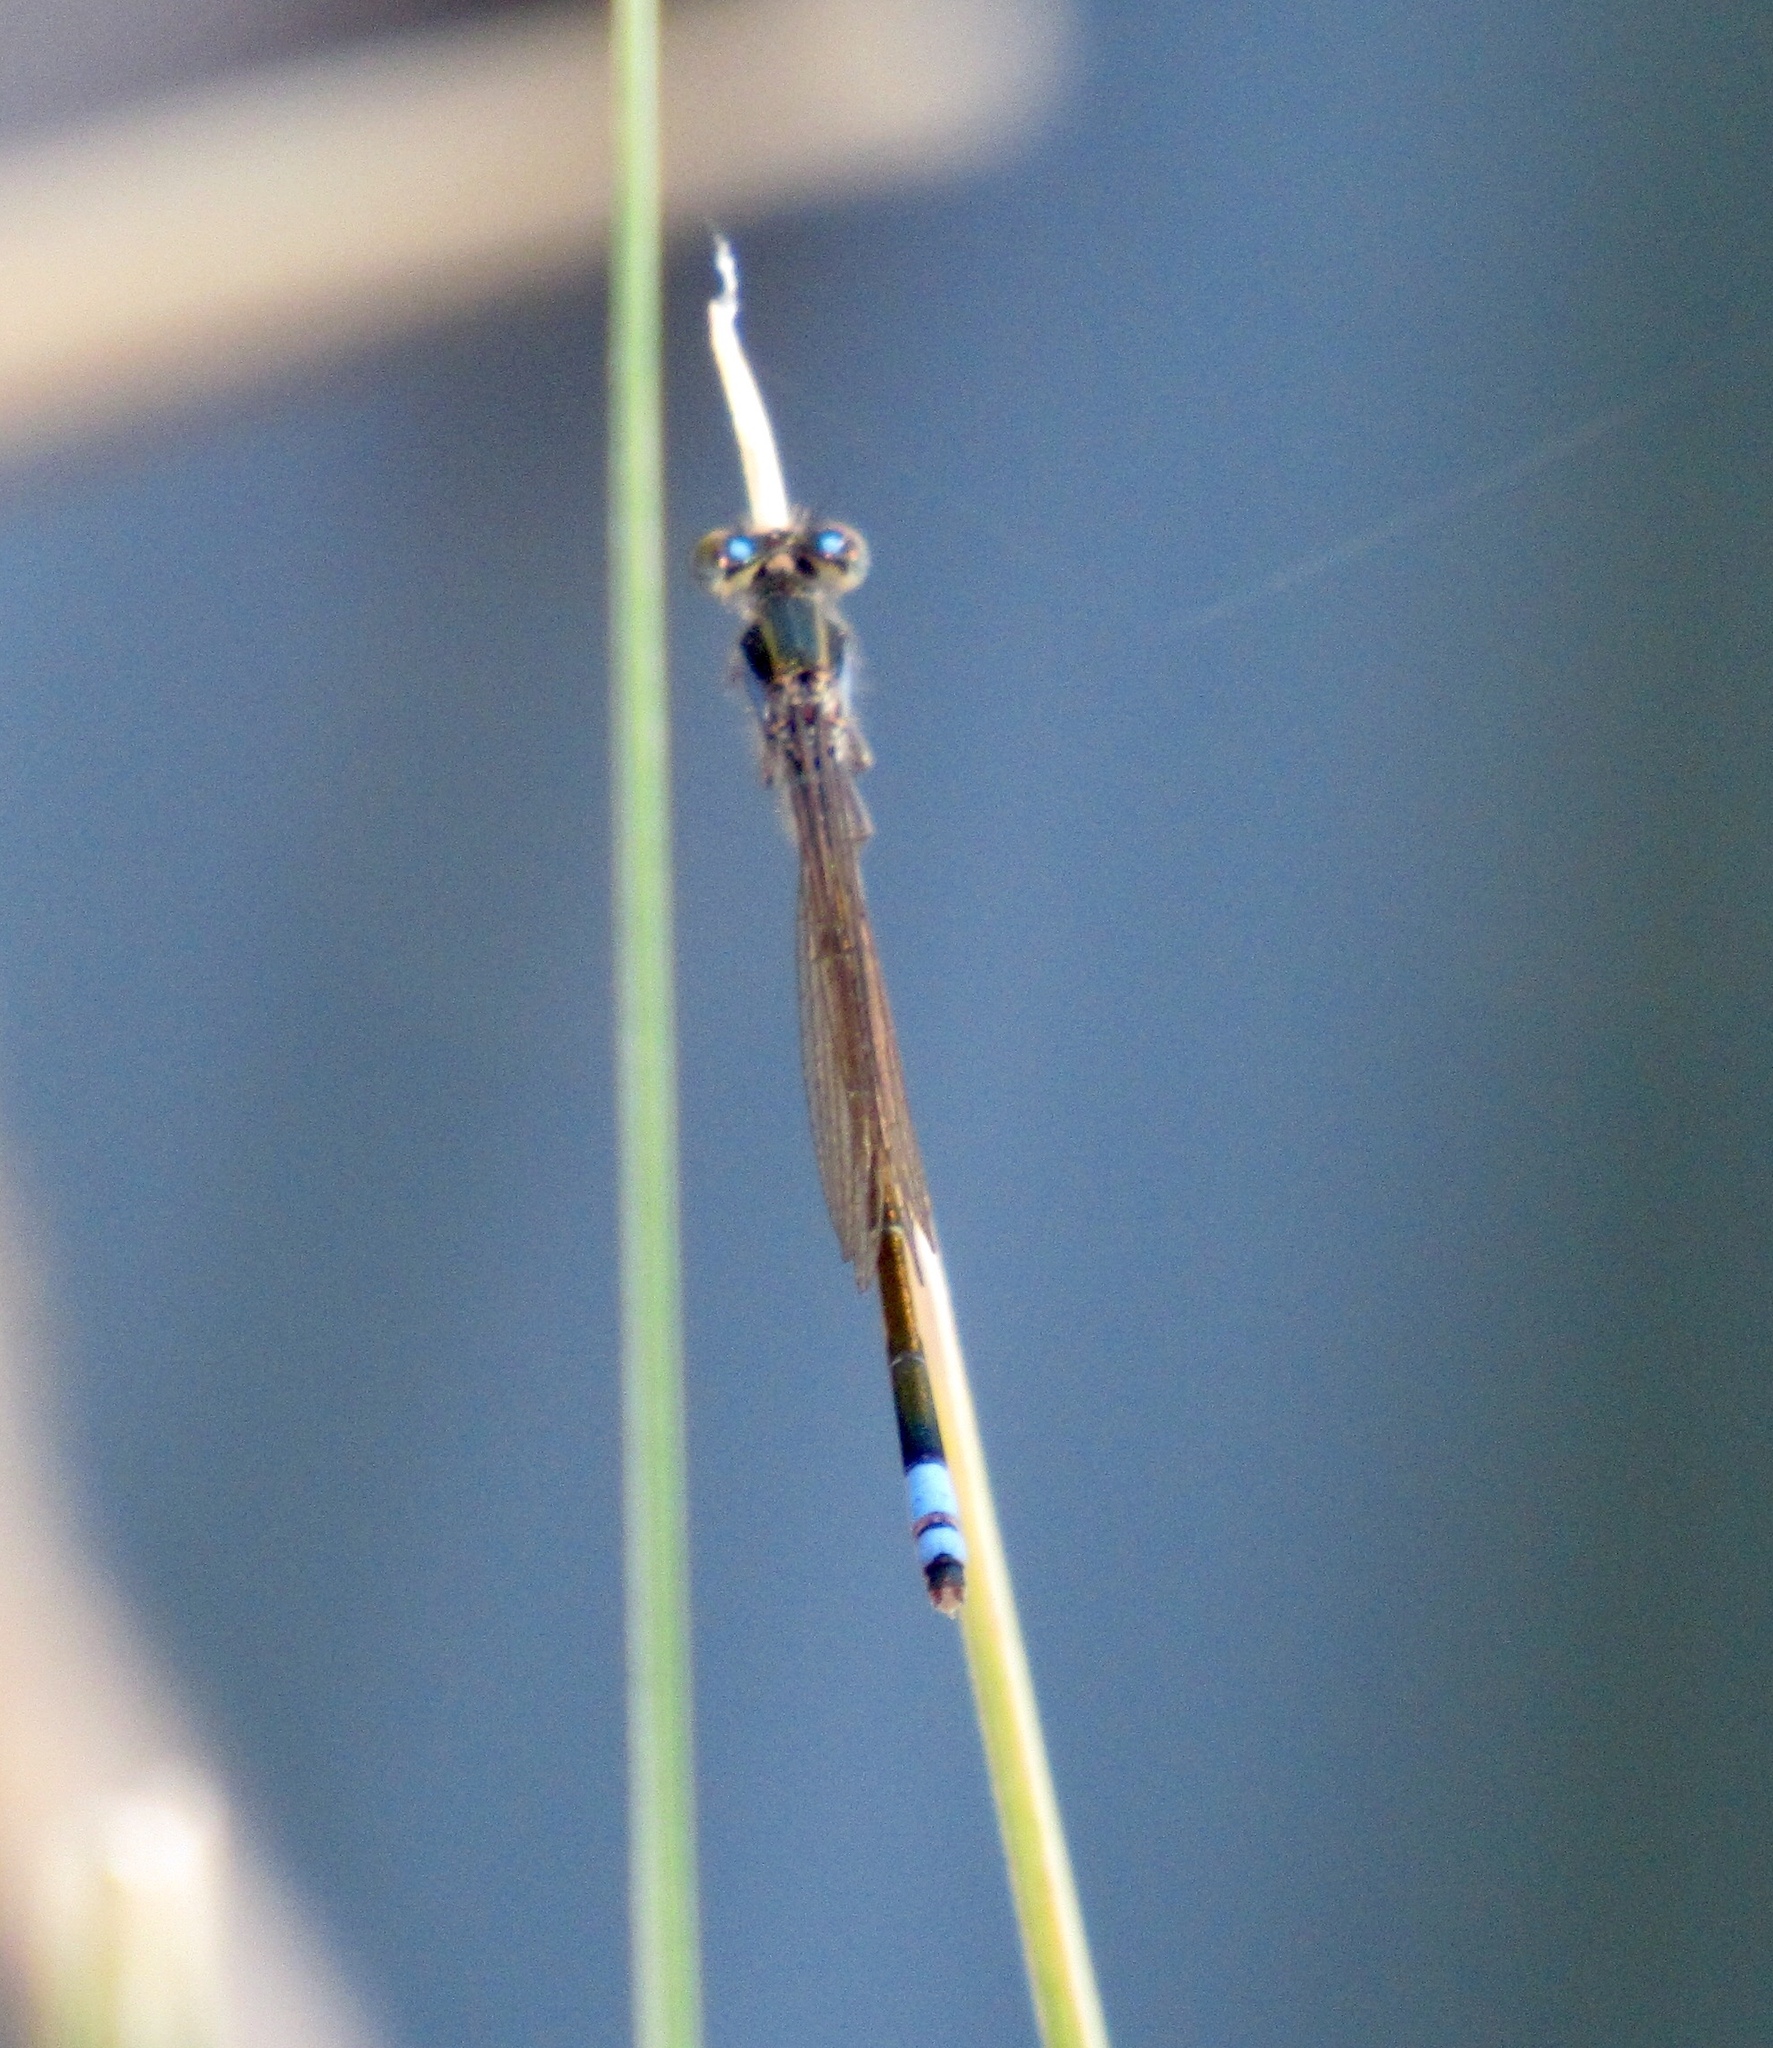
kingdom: Animalia
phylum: Arthropoda
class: Insecta
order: Odonata
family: Coenagrionidae
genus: Ischnura
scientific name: Ischnura ramburii
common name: Rambur's forktail
